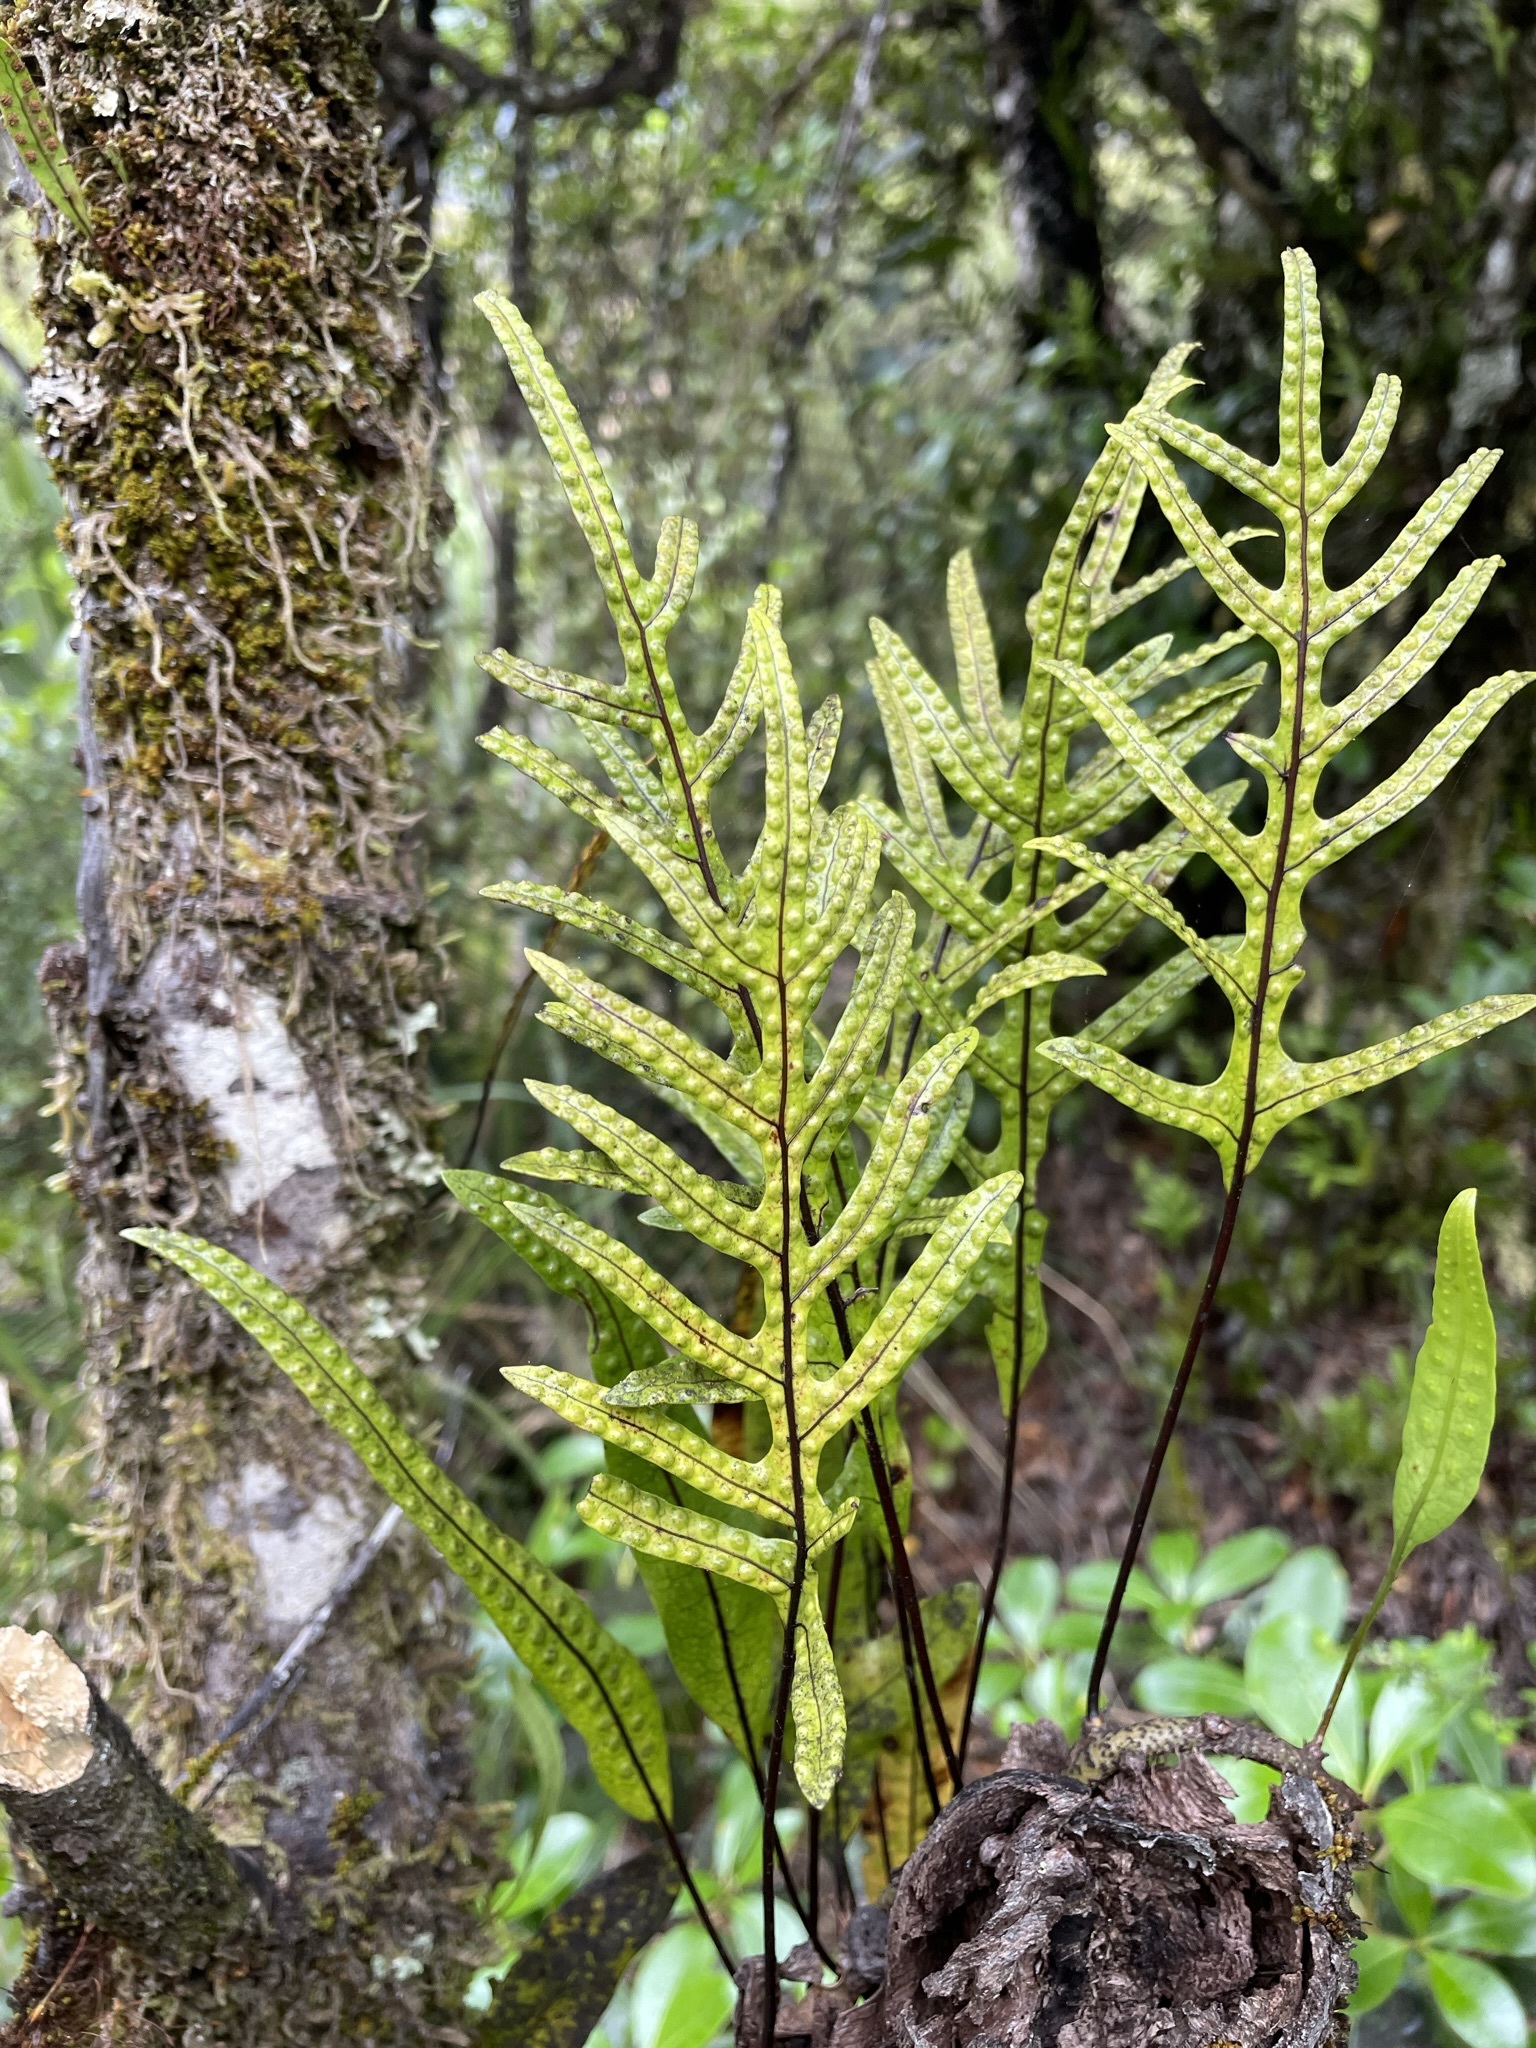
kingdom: Plantae
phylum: Tracheophyta
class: Polypodiopsida
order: Polypodiales
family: Polypodiaceae
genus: Lecanopteris
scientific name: Lecanopteris pustulata
